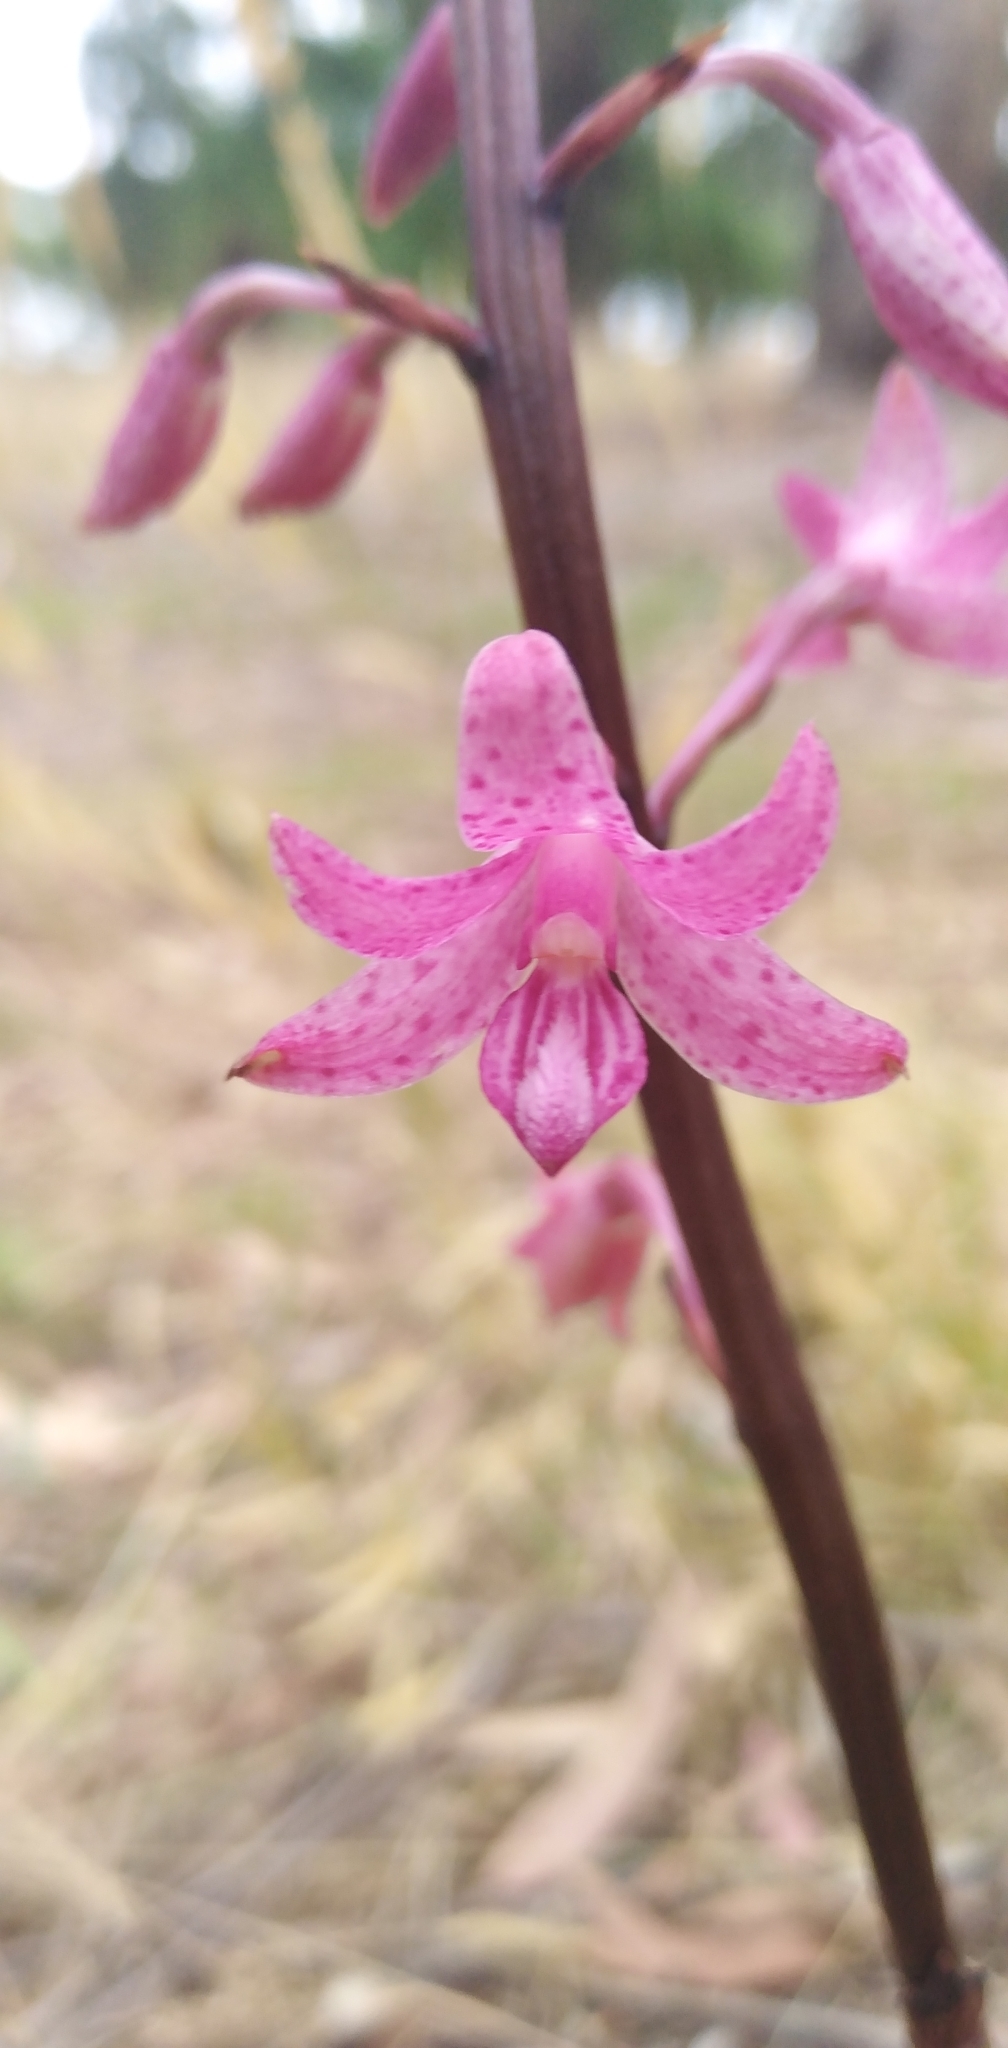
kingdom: Plantae
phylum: Tracheophyta
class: Liliopsida
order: Asparagales
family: Orchidaceae
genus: Dipodium
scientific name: Dipodium roseum
